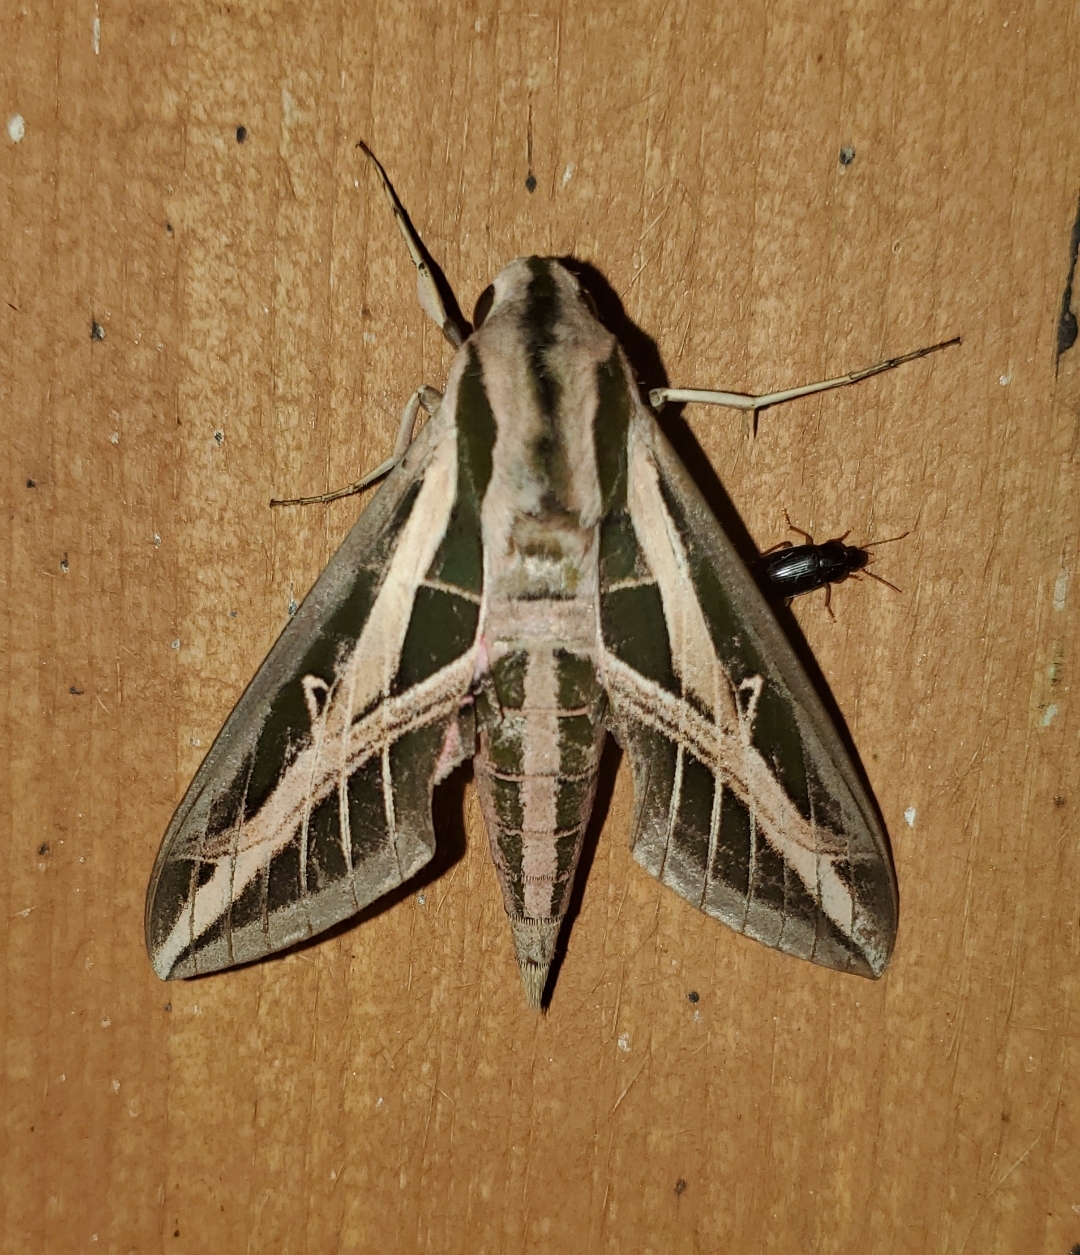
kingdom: Animalia
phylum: Arthropoda
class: Insecta
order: Lepidoptera
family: Sphingidae
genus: Eumorpha
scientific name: Eumorpha fasciatus
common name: Banded sphinx
